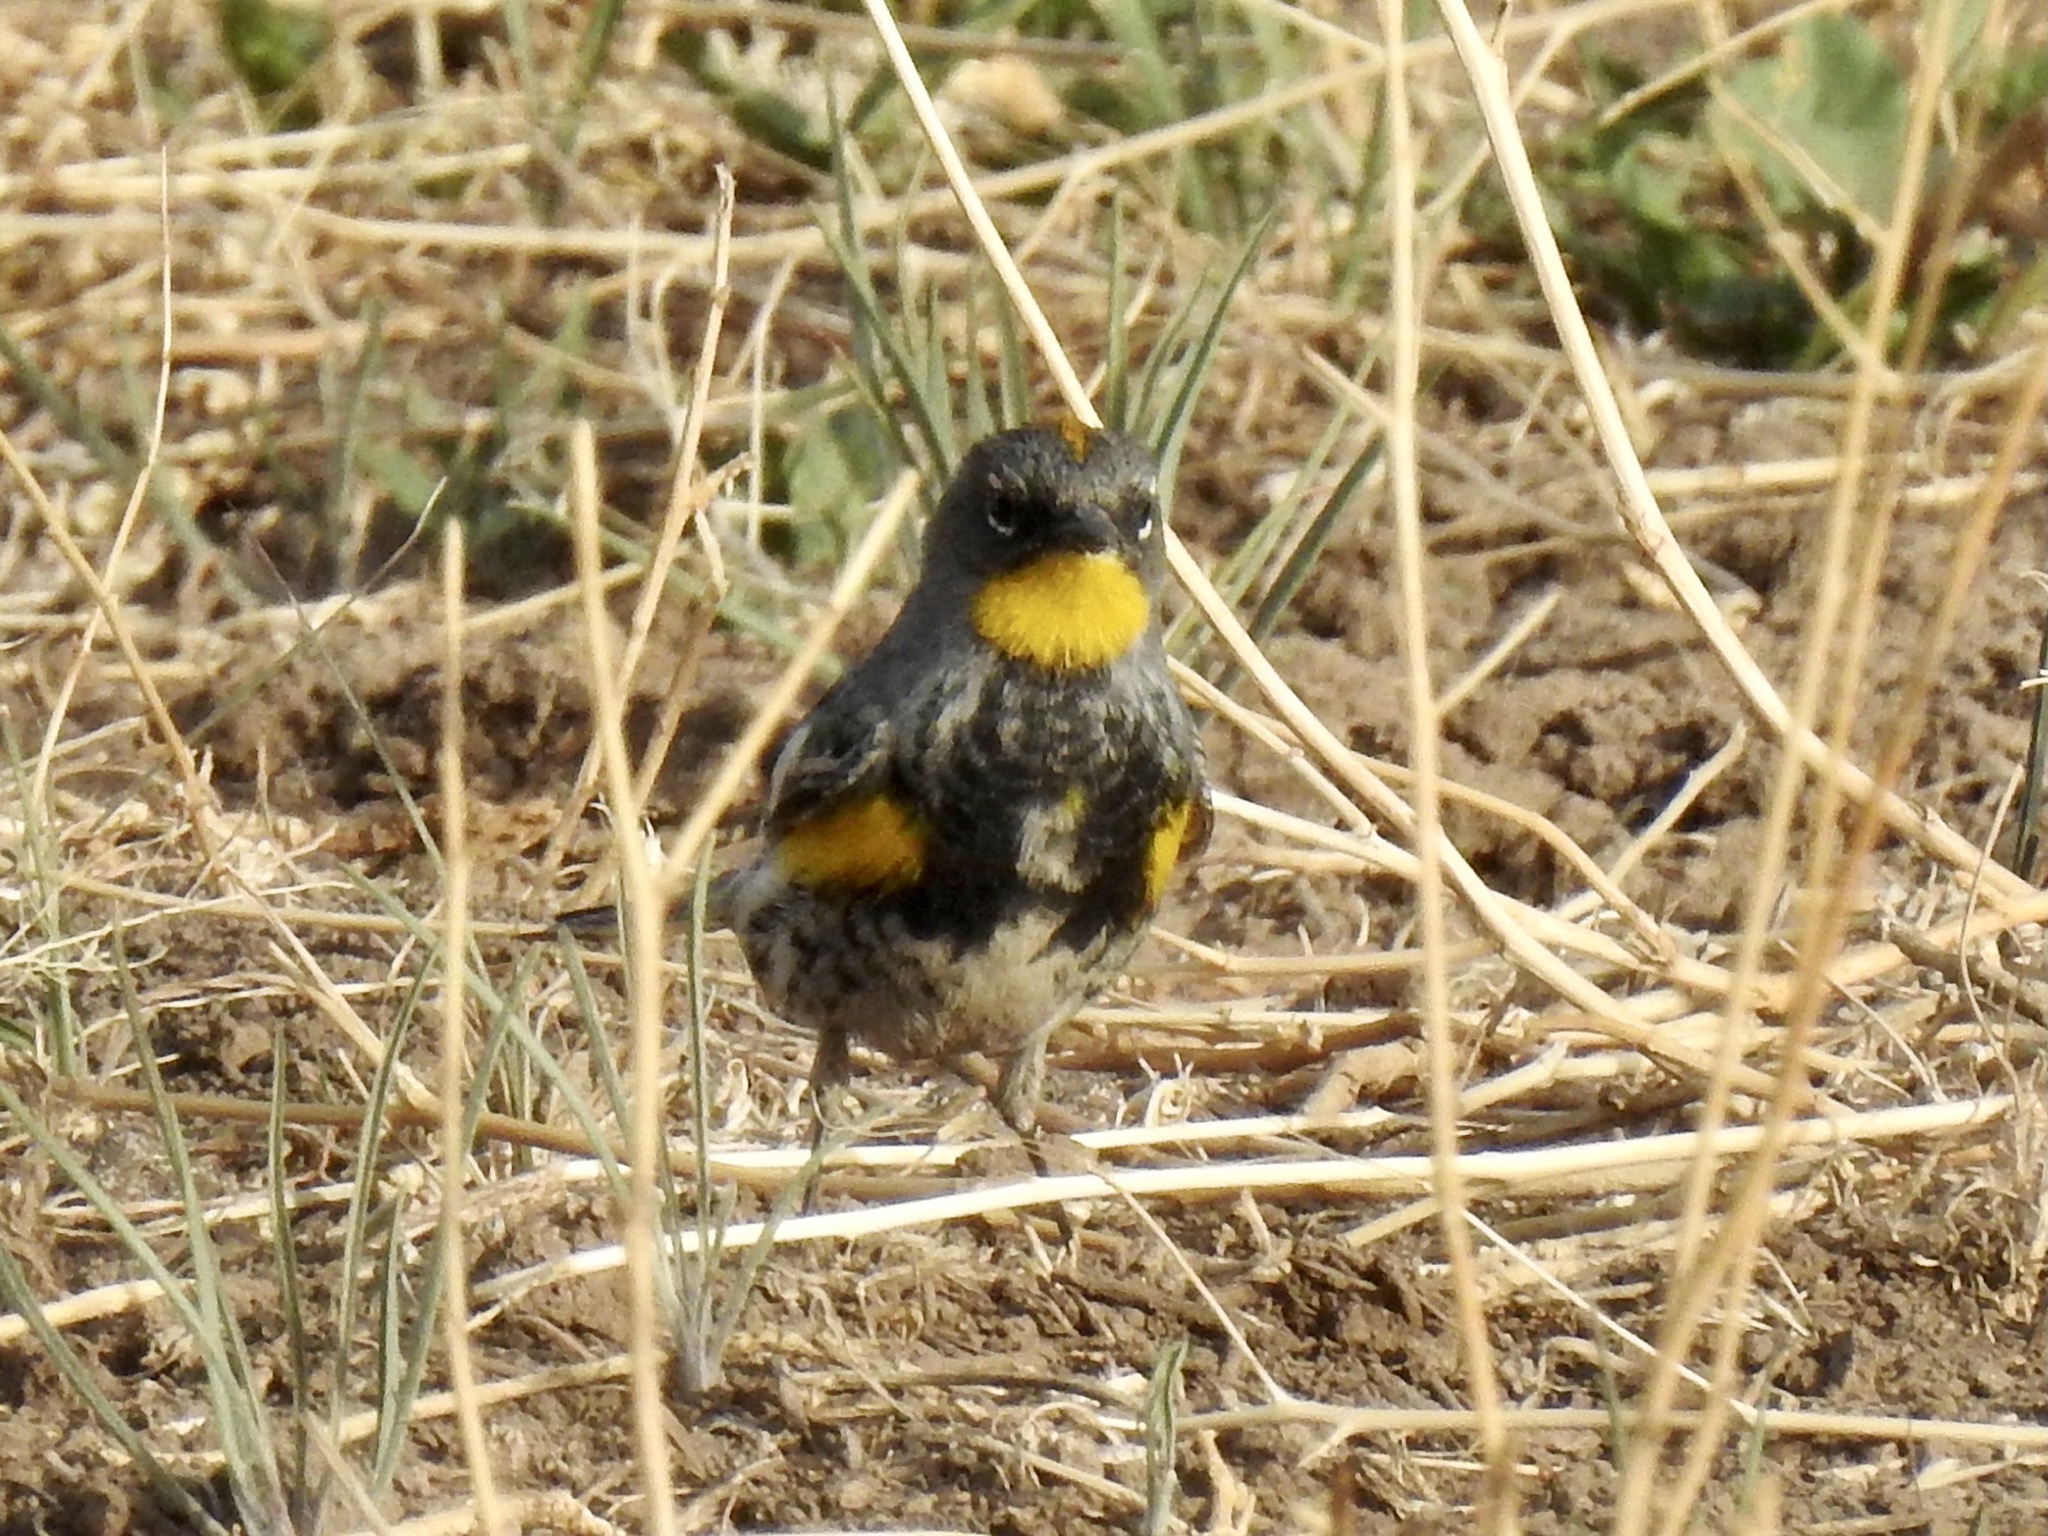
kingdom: Animalia
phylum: Chordata
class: Aves
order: Passeriformes
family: Parulidae
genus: Setophaga
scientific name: Setophaga coronata
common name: Myrtle warbler
